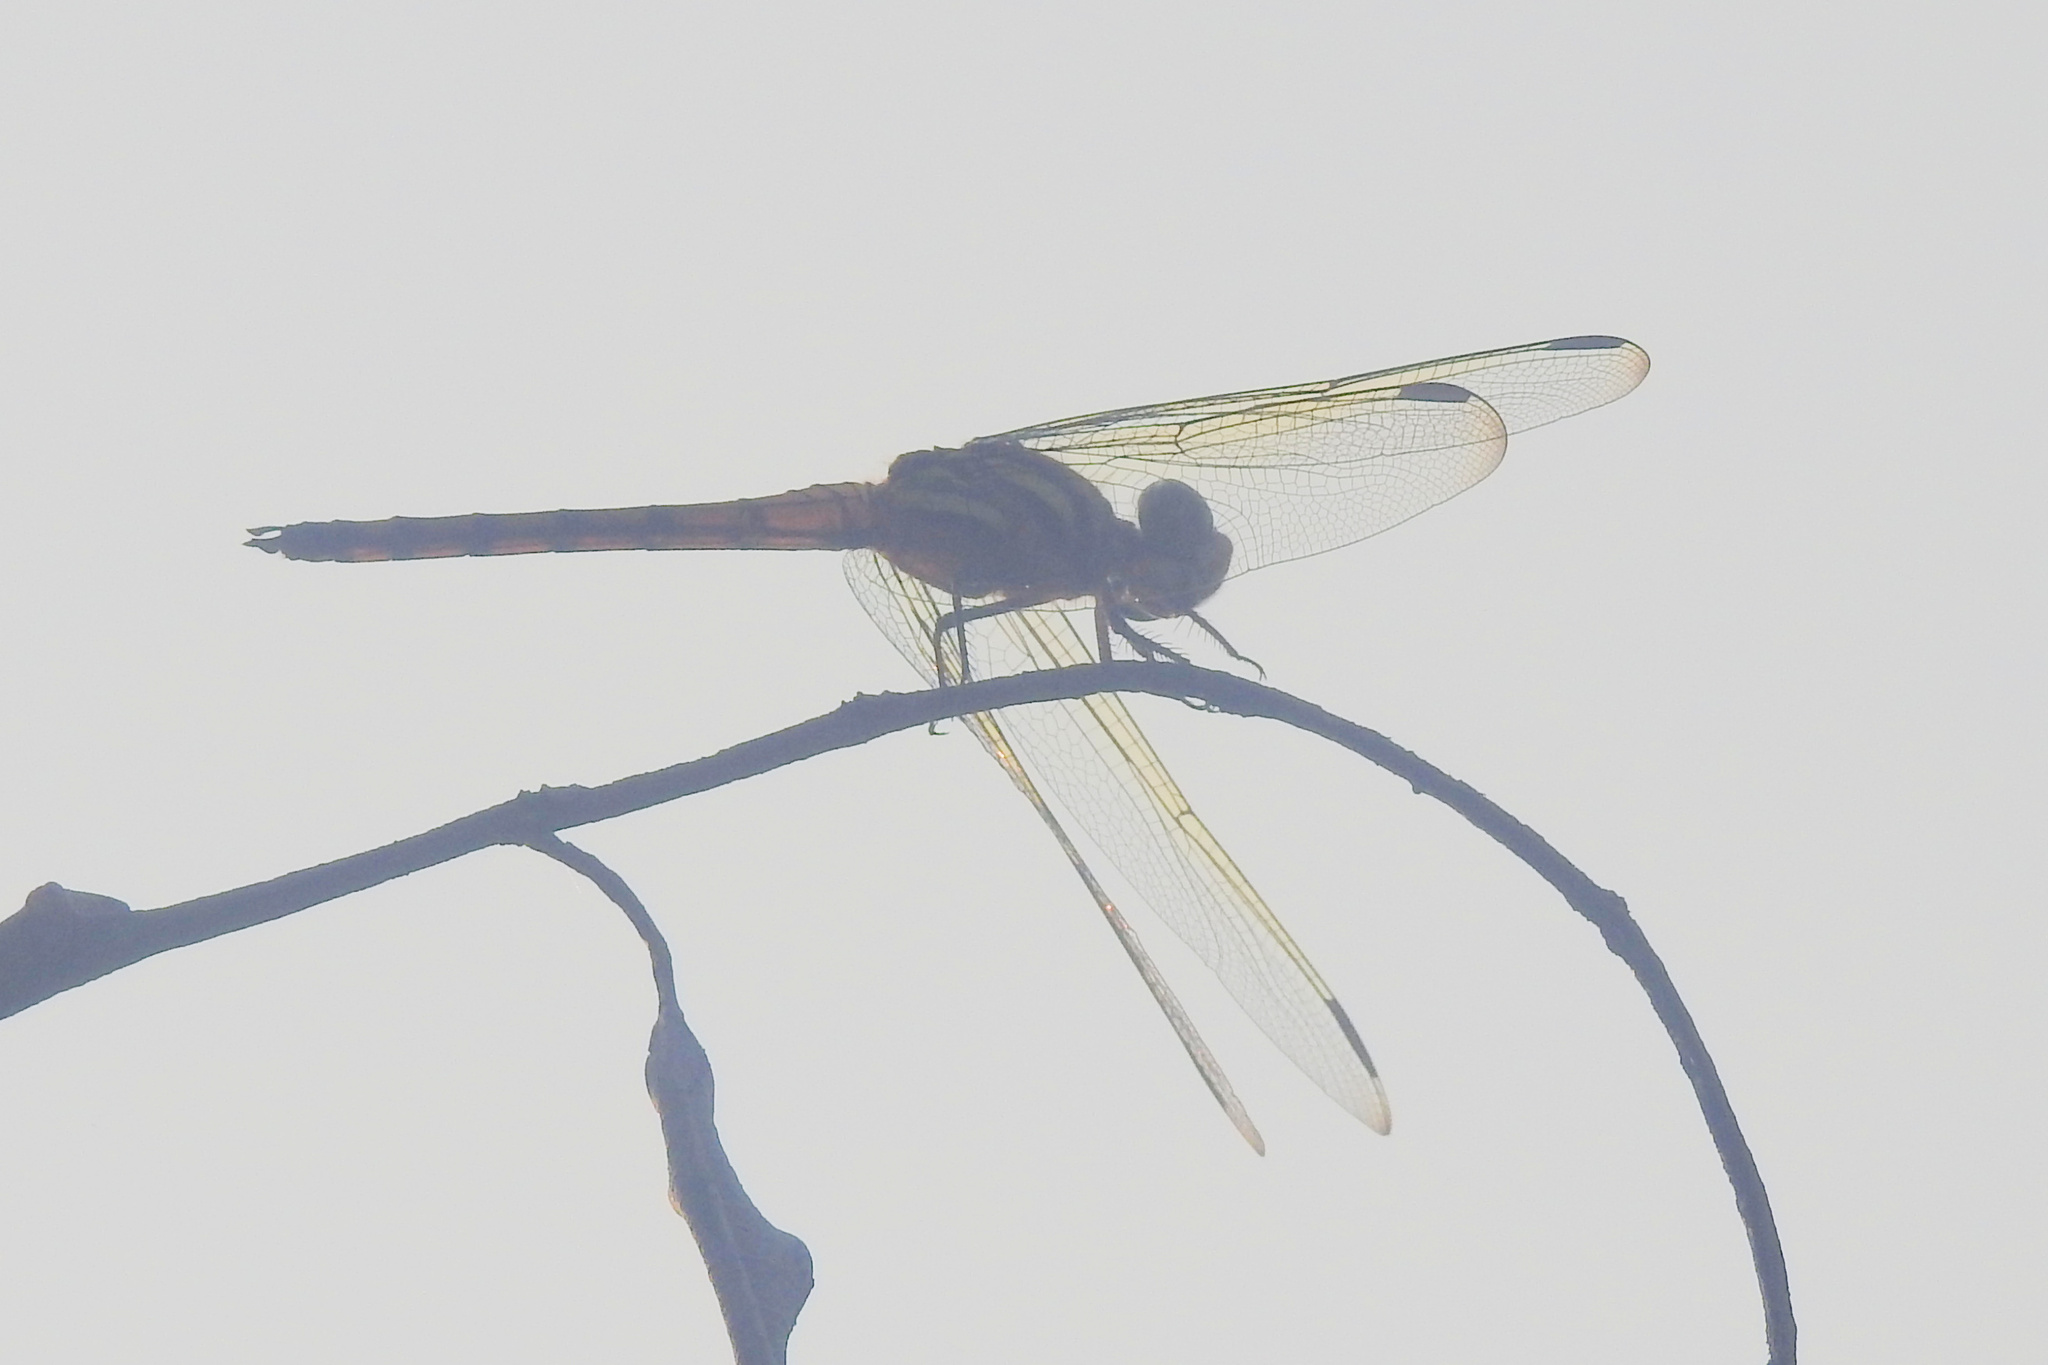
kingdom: Animalia
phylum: Arthropoda
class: Insecta
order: Odonata
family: Libellulidae
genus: Potamarcha
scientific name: Potamarcha congener
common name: Blue chaser
